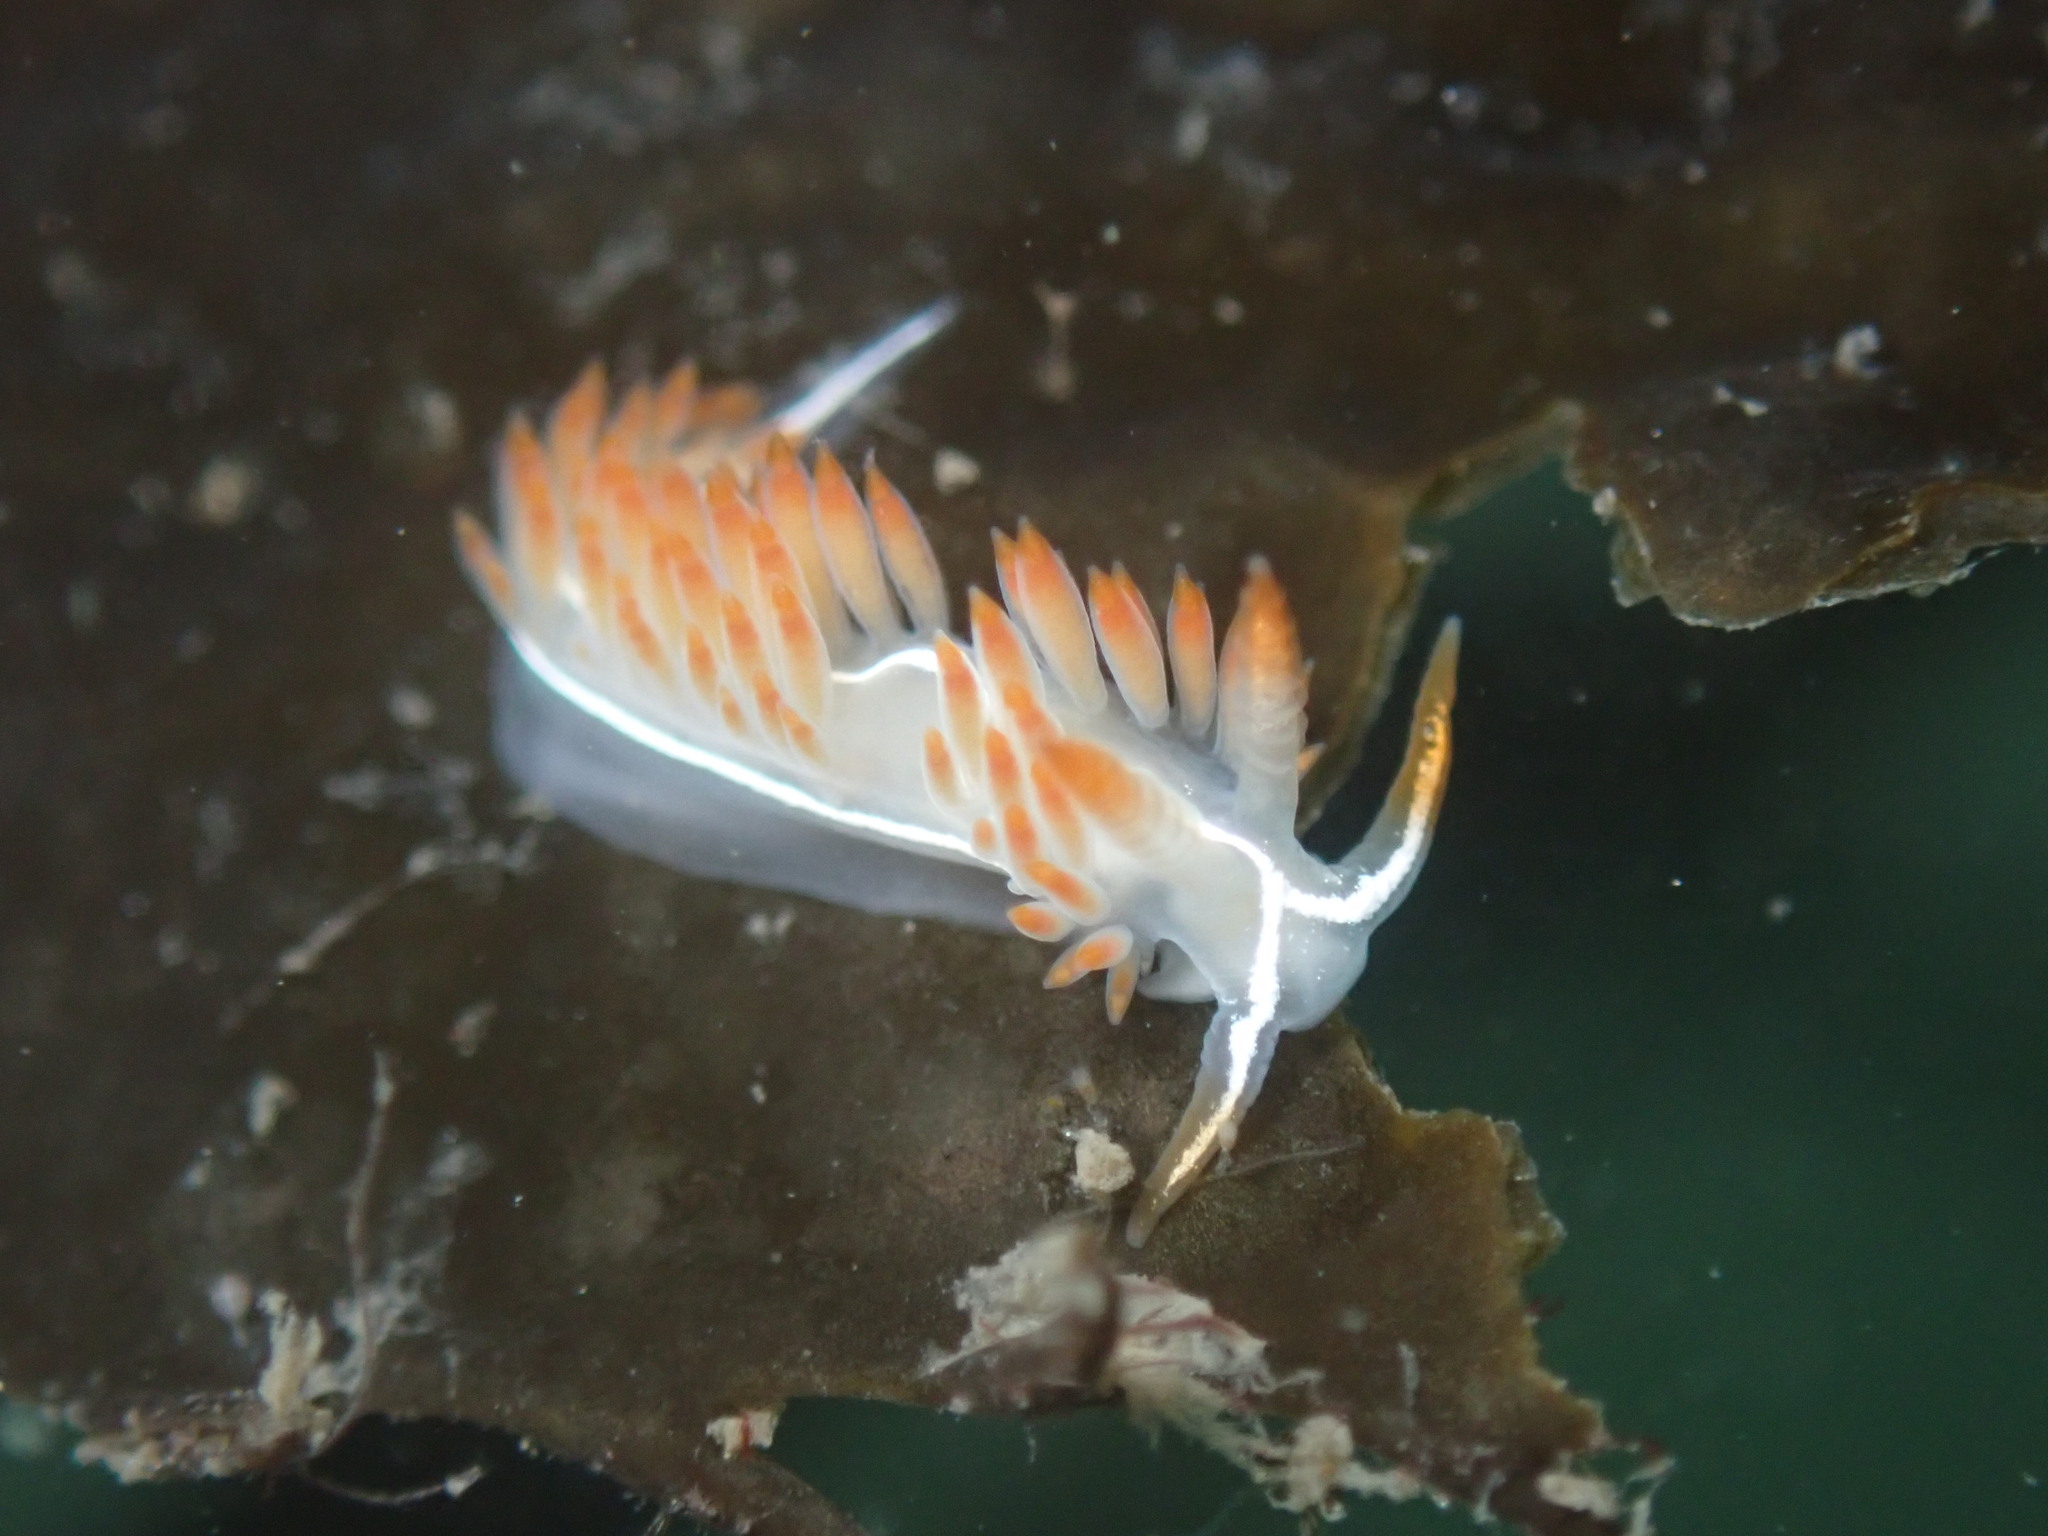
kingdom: Animalia
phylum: Mollusca
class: Gastropoda
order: Nudibranchia
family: Coryphellidae
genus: Coryphella
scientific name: Coryphella trilineata
